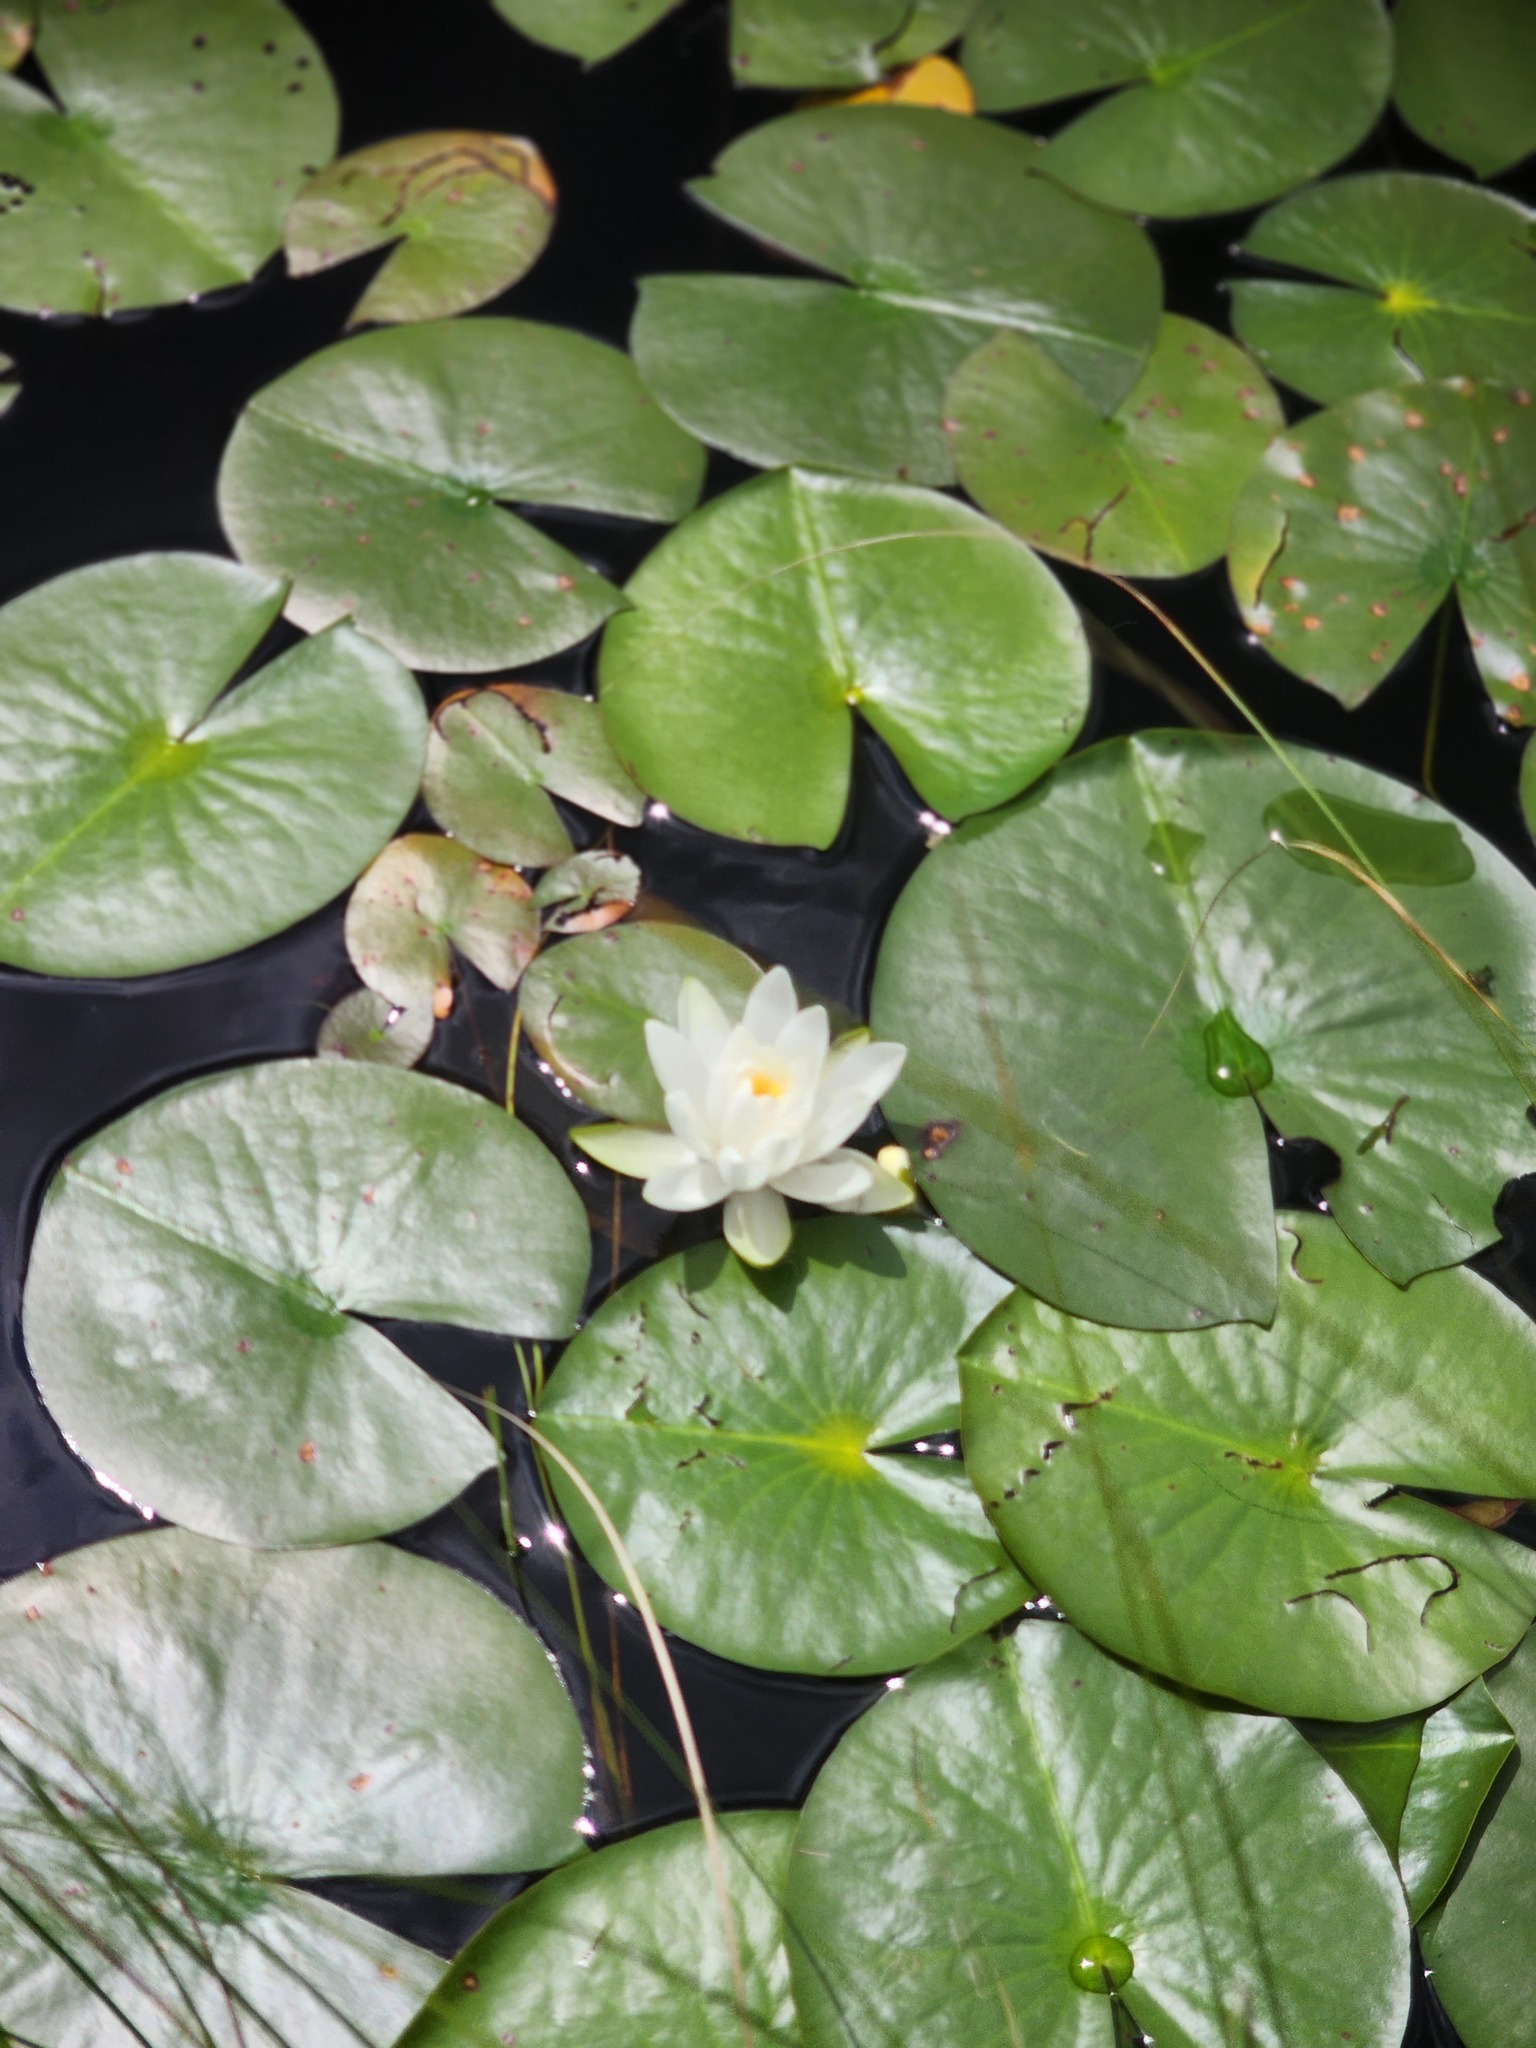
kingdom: Plantae
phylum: Tracheophyta
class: Magnoliopsida
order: Nymphaeales
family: Nymphaeaceae
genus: Nymphaea
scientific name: Nymphaea odorata
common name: Fragrant water-lily
